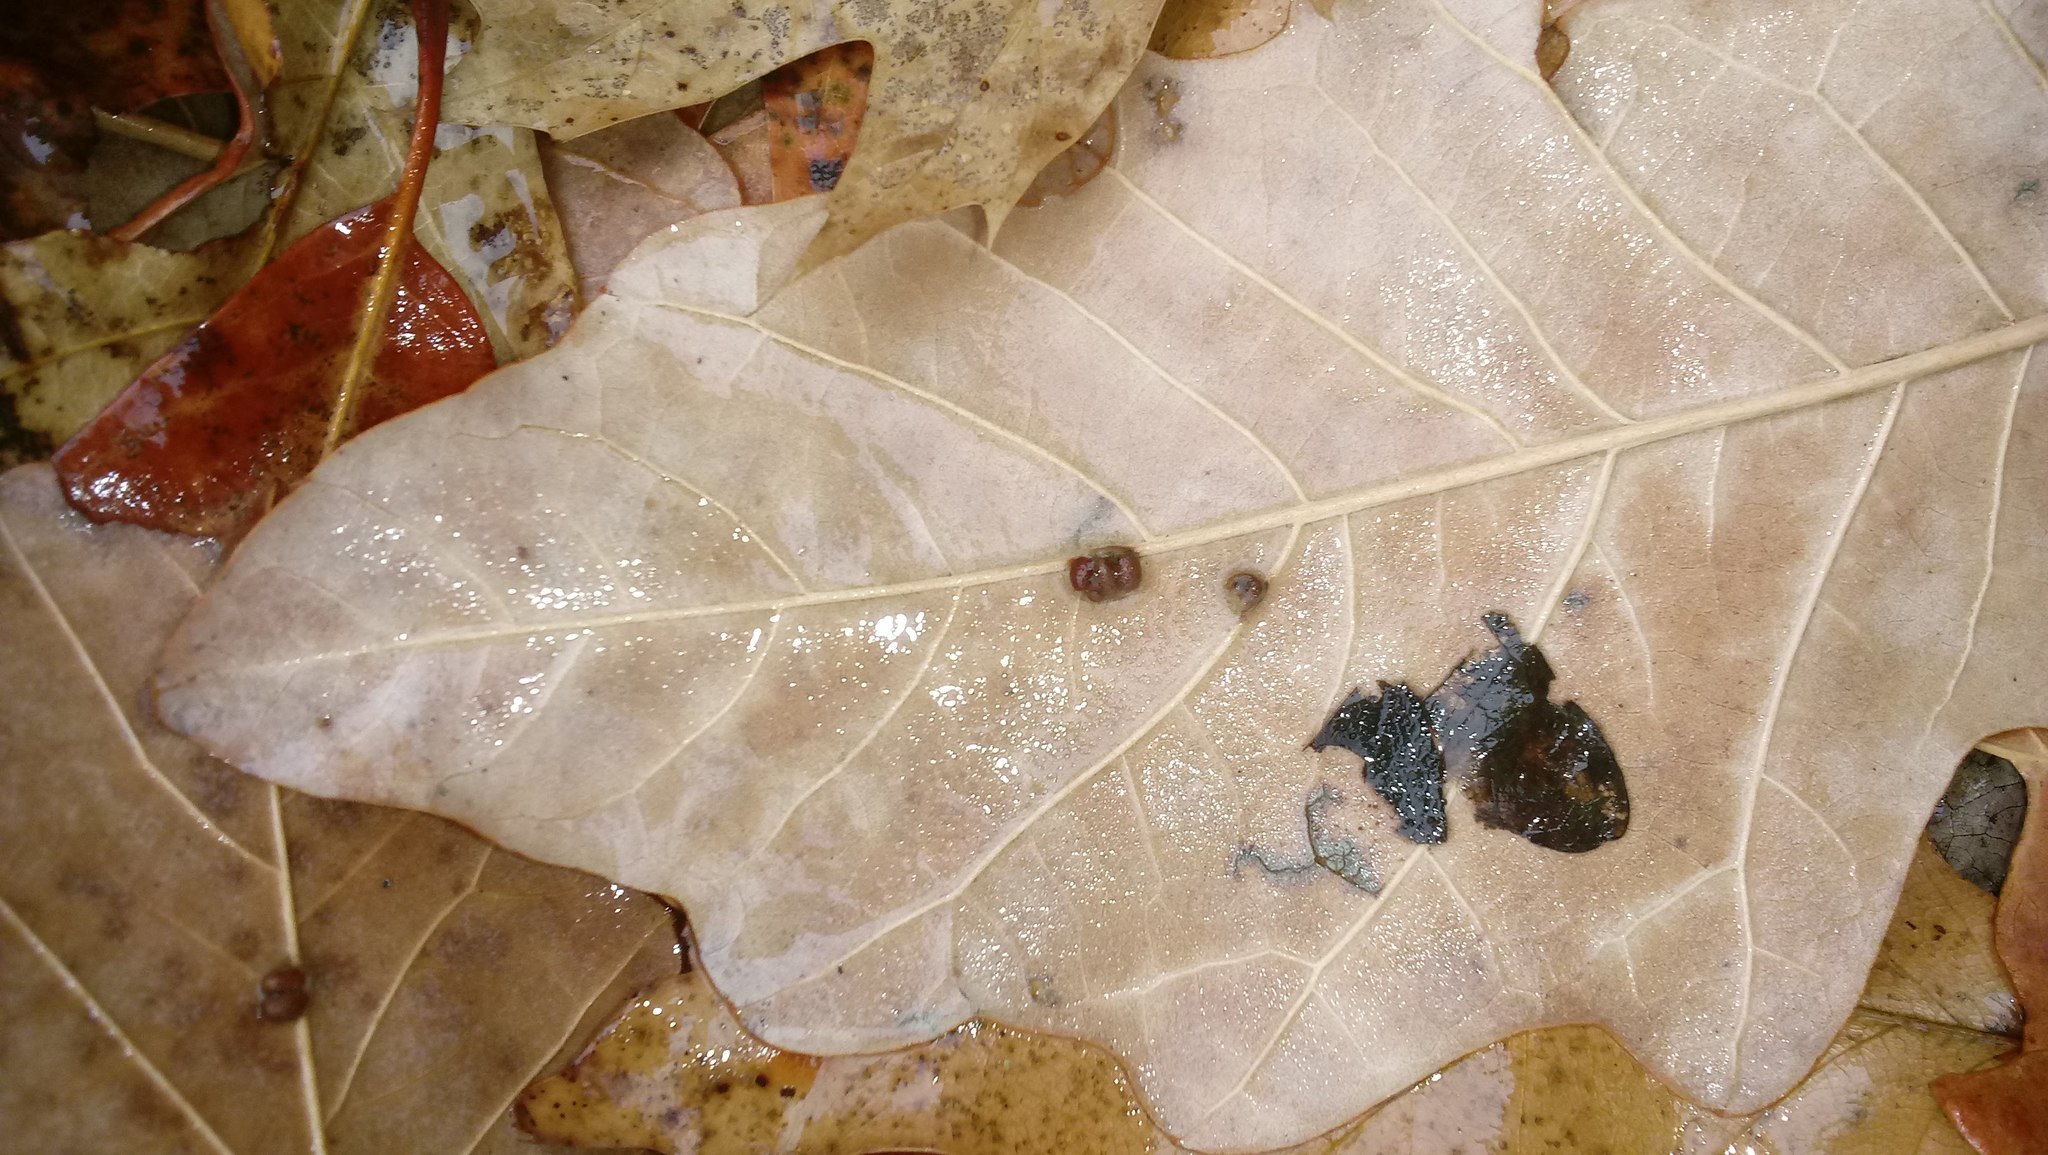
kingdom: Animalia
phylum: Arthropoda
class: Insecta
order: Hymenoptera
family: Cynipidae
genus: Andricus
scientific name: Andricus Druon ignotum
